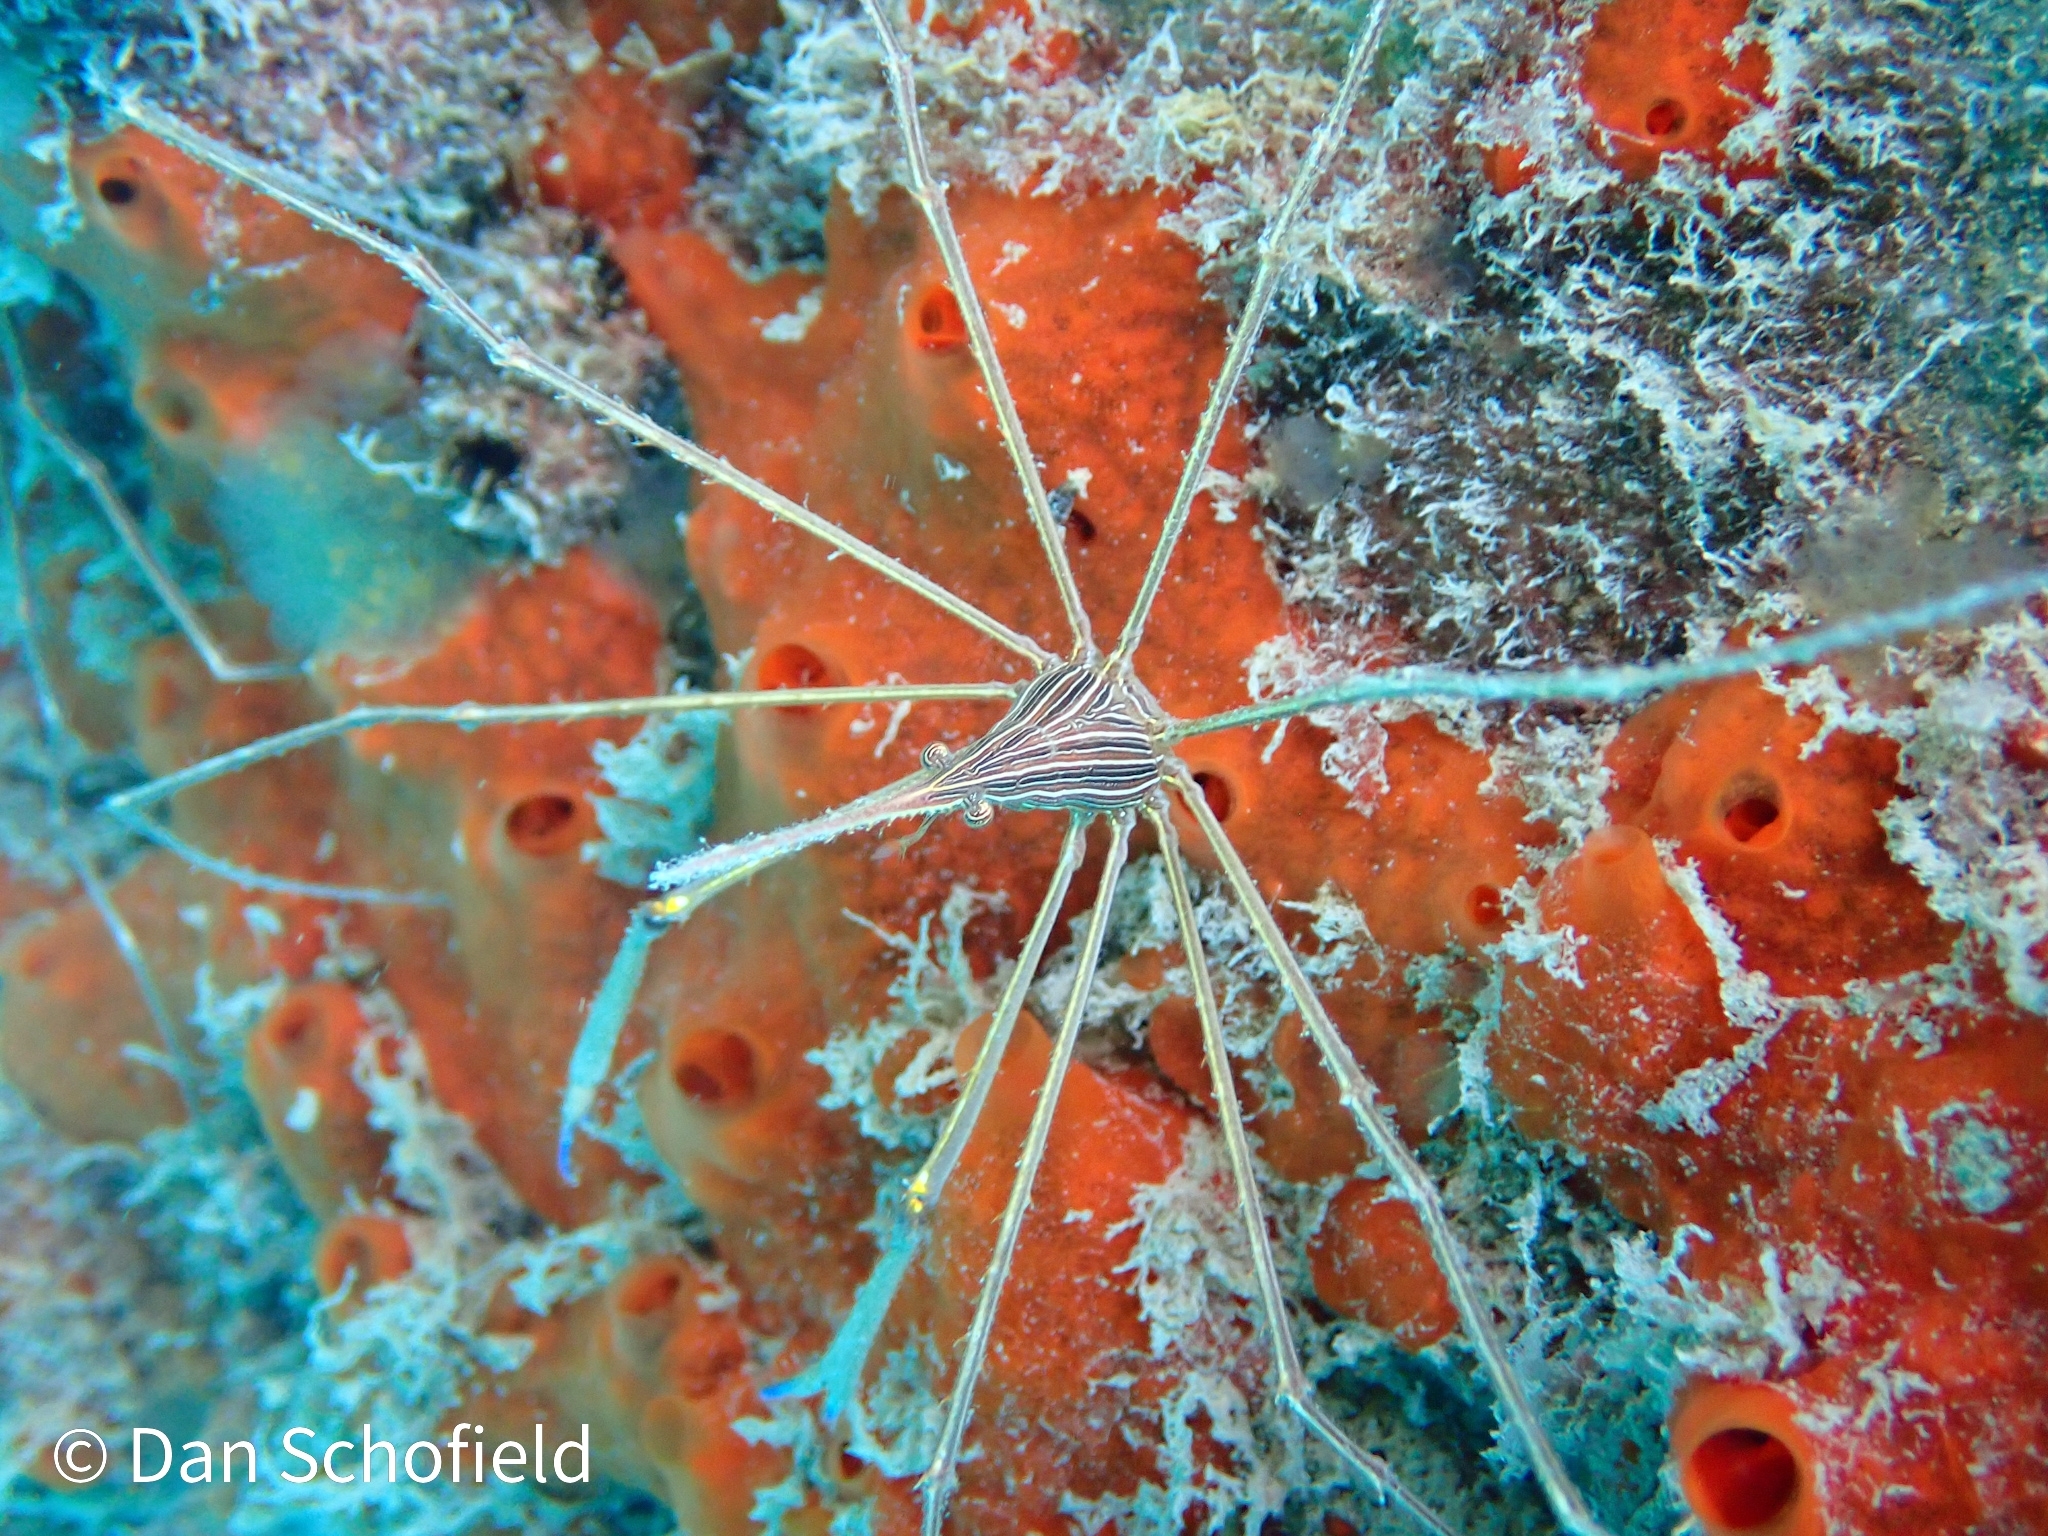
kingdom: Animalia
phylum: Arthropoda
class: Malacostraca
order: Decapoda
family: Inachoididae
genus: Stenorhynchus
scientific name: Stenorhynchus seticornis
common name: Arrow crab
